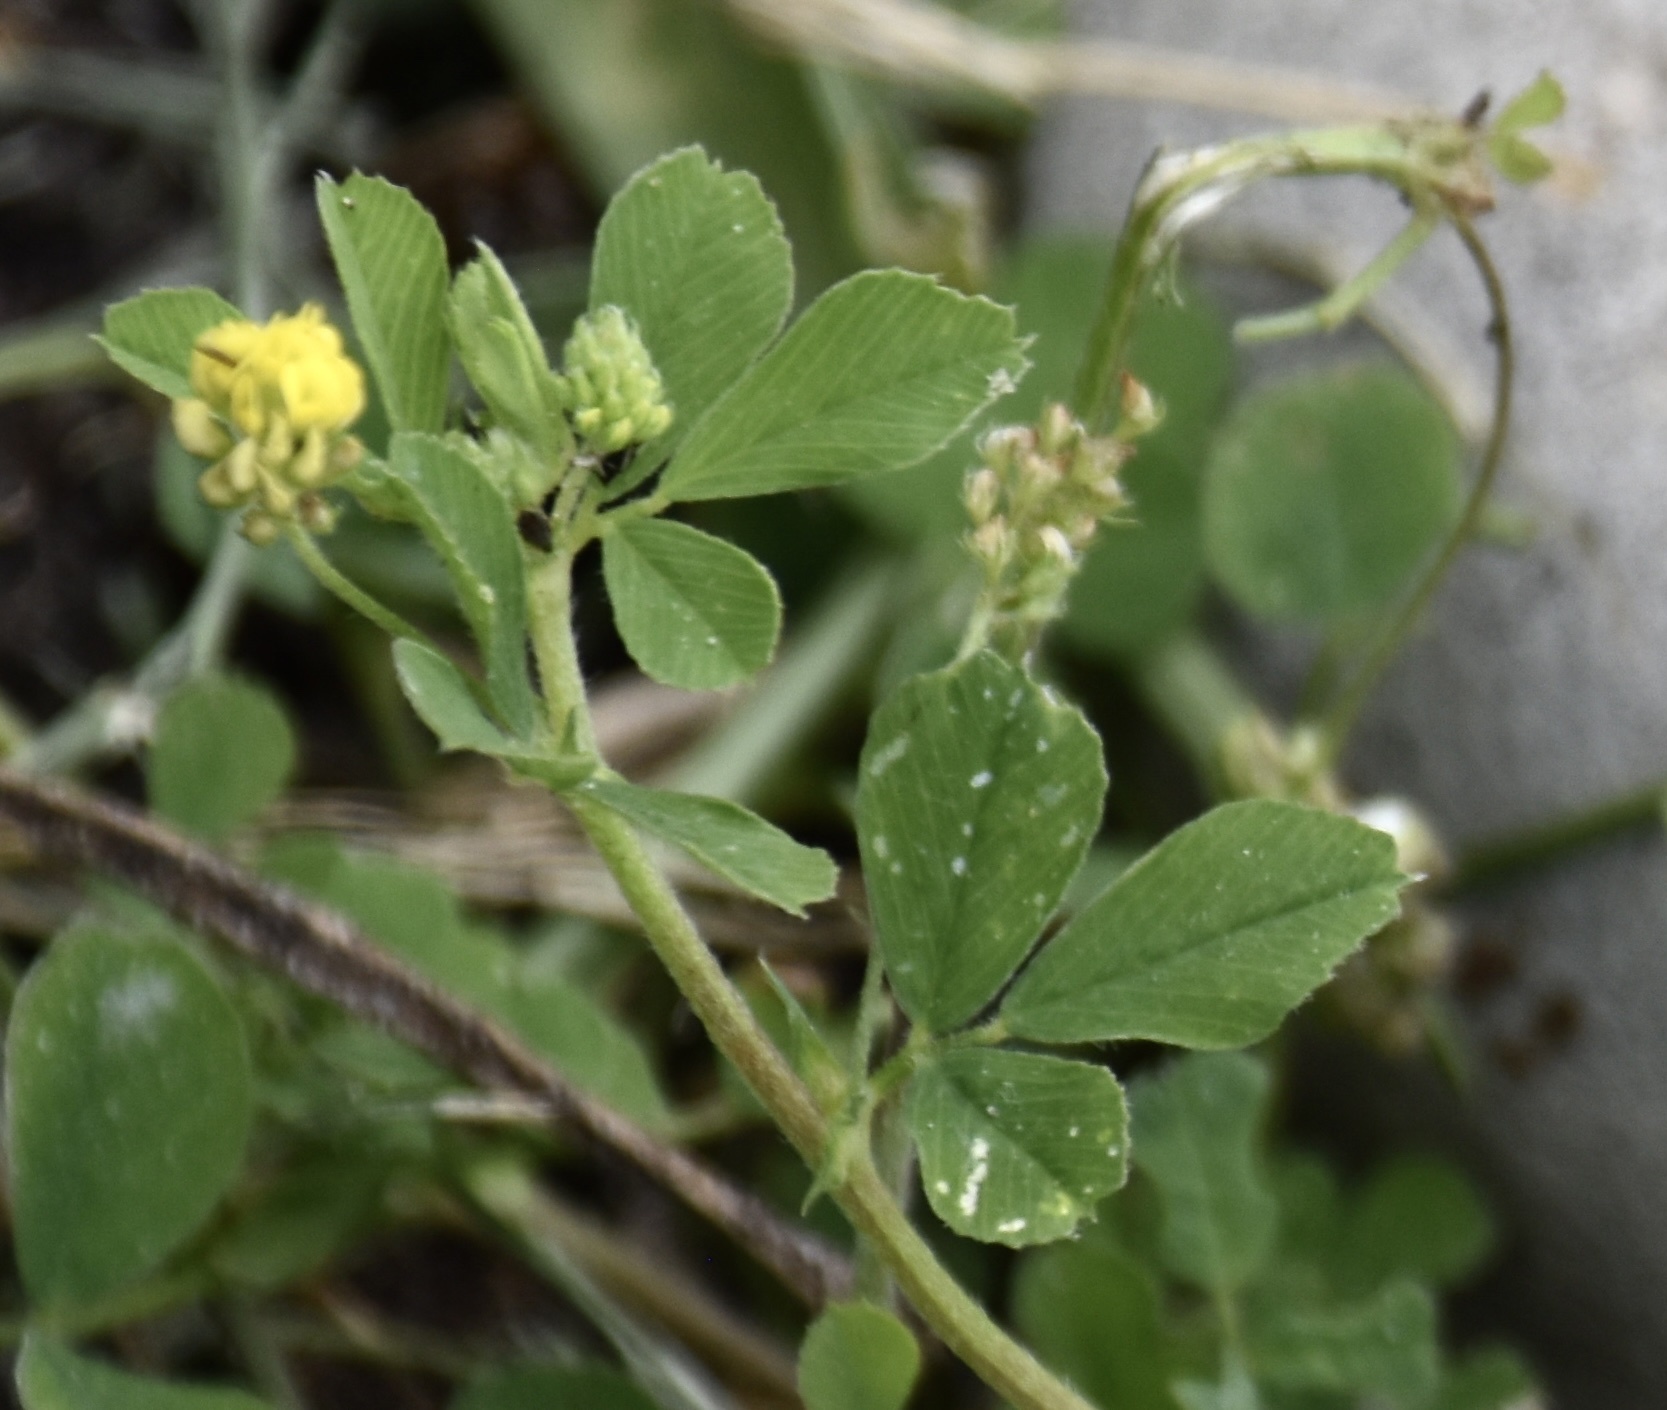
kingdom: Plantae
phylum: Tracheophyta
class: Magnoliopsida
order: Fabales
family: Fabaceae
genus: Medicago
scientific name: Medicago lupulina
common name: Black medick
